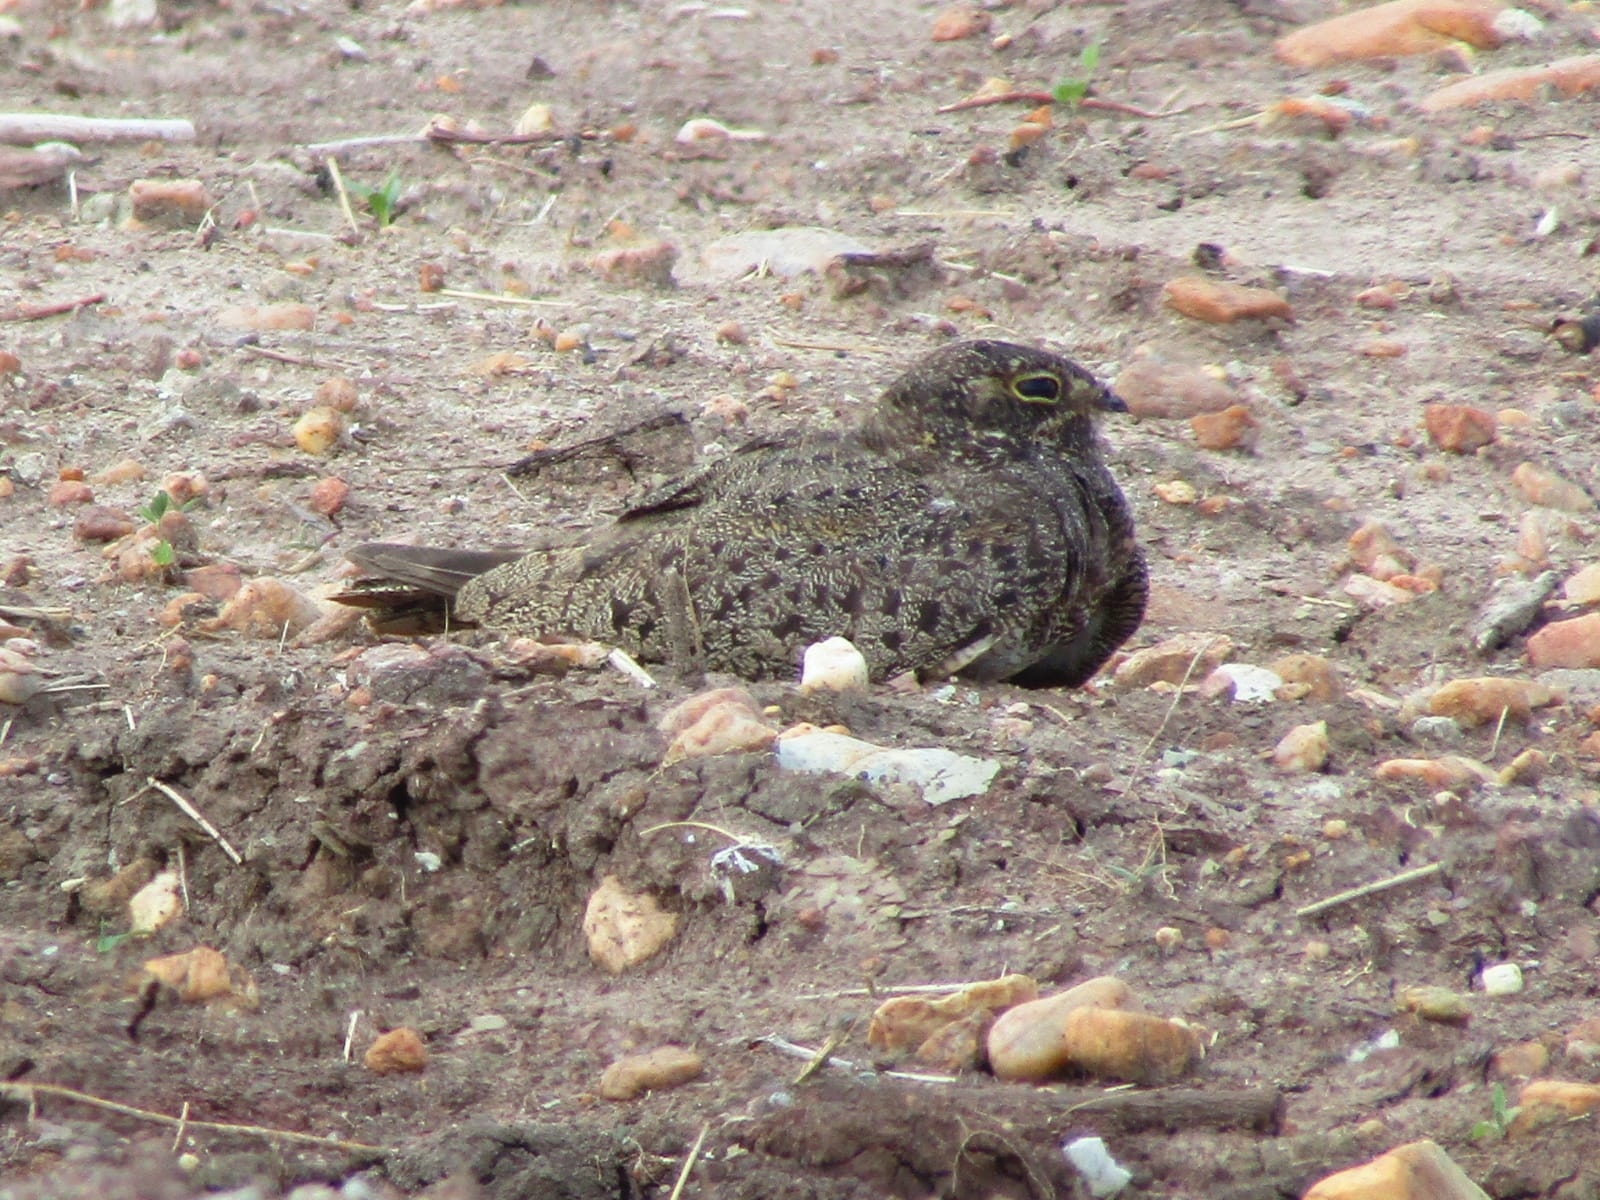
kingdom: Animalia
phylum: Chordata
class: Aves
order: Caprimulgiformes
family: Caprimulgidae
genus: Chordeiles
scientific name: Chordeiles nacunda
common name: Nacunda nighthawk
